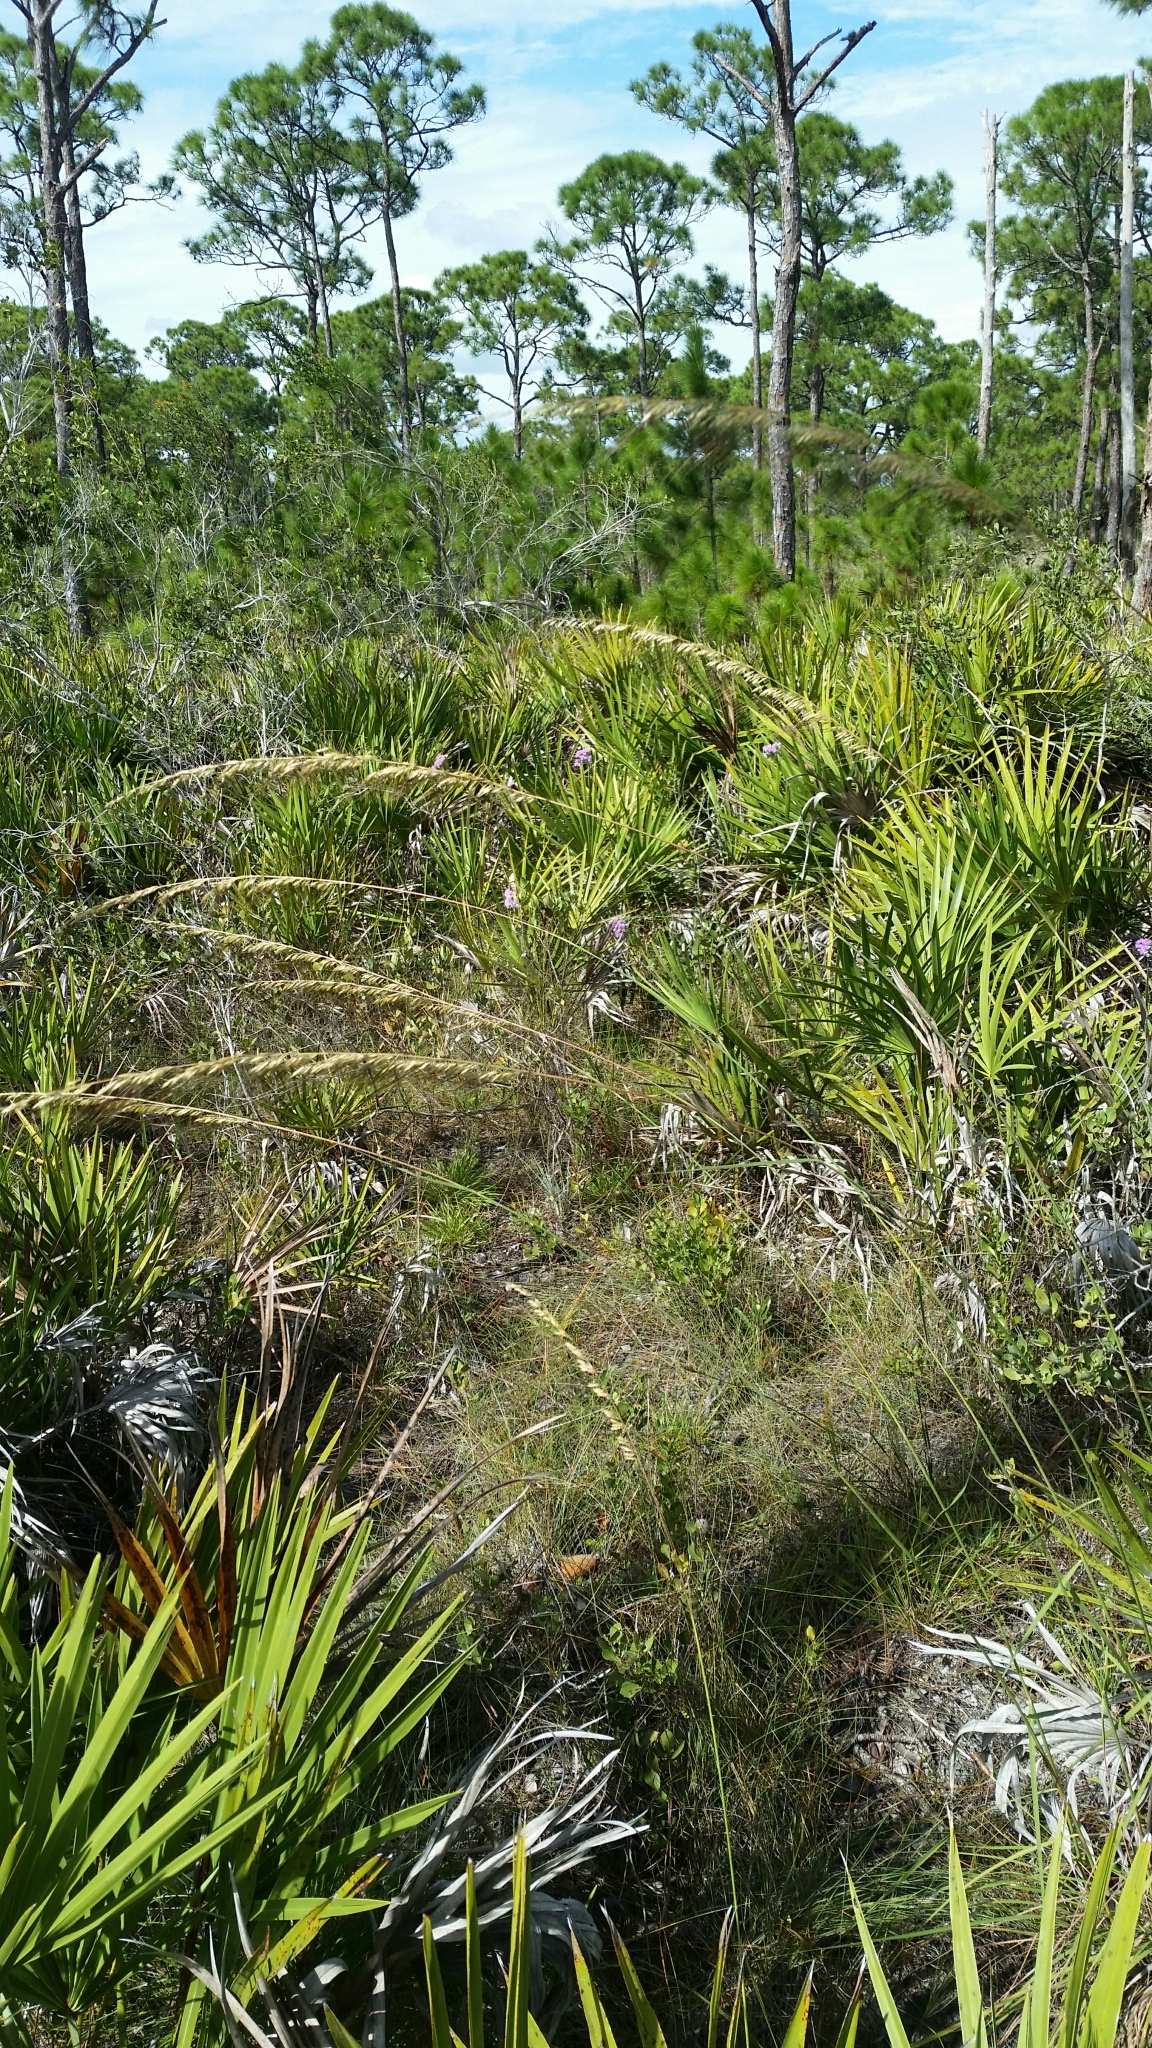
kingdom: Plantae
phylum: Tracheophyta
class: Liliopsida
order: Poales
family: Poaceae
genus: Sorghastrum
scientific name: Sorghastrum secundum
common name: Lopsided indian grass
